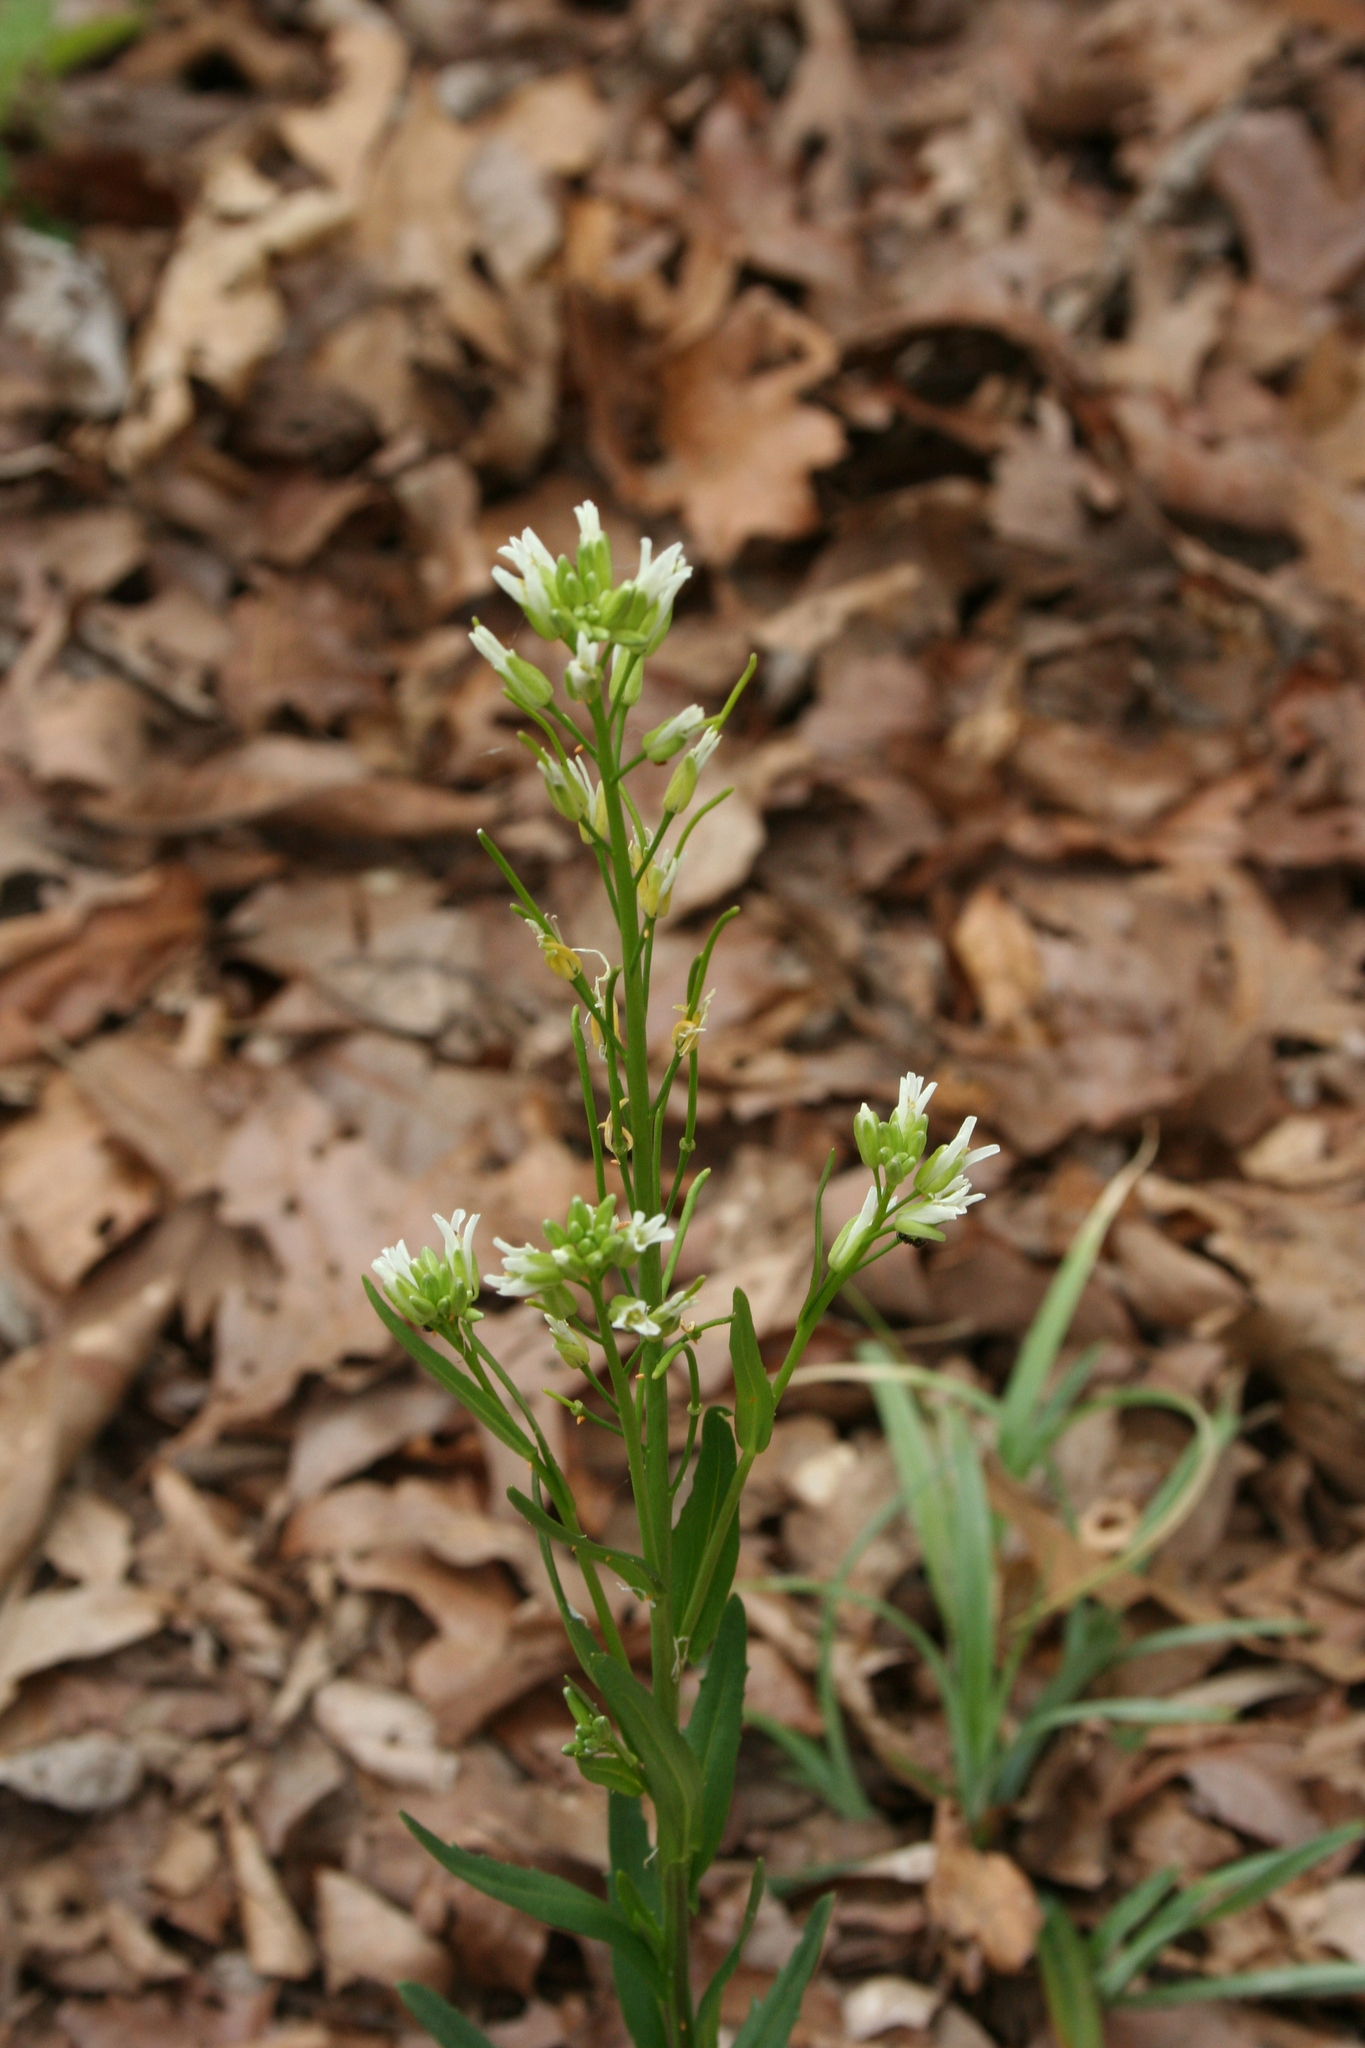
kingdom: Plantae
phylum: Tracheophyta
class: Magnoliopsida
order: Brassicales
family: Brassicaceae
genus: Borodinia
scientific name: Borodinia missouriensis
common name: Green rockcress
